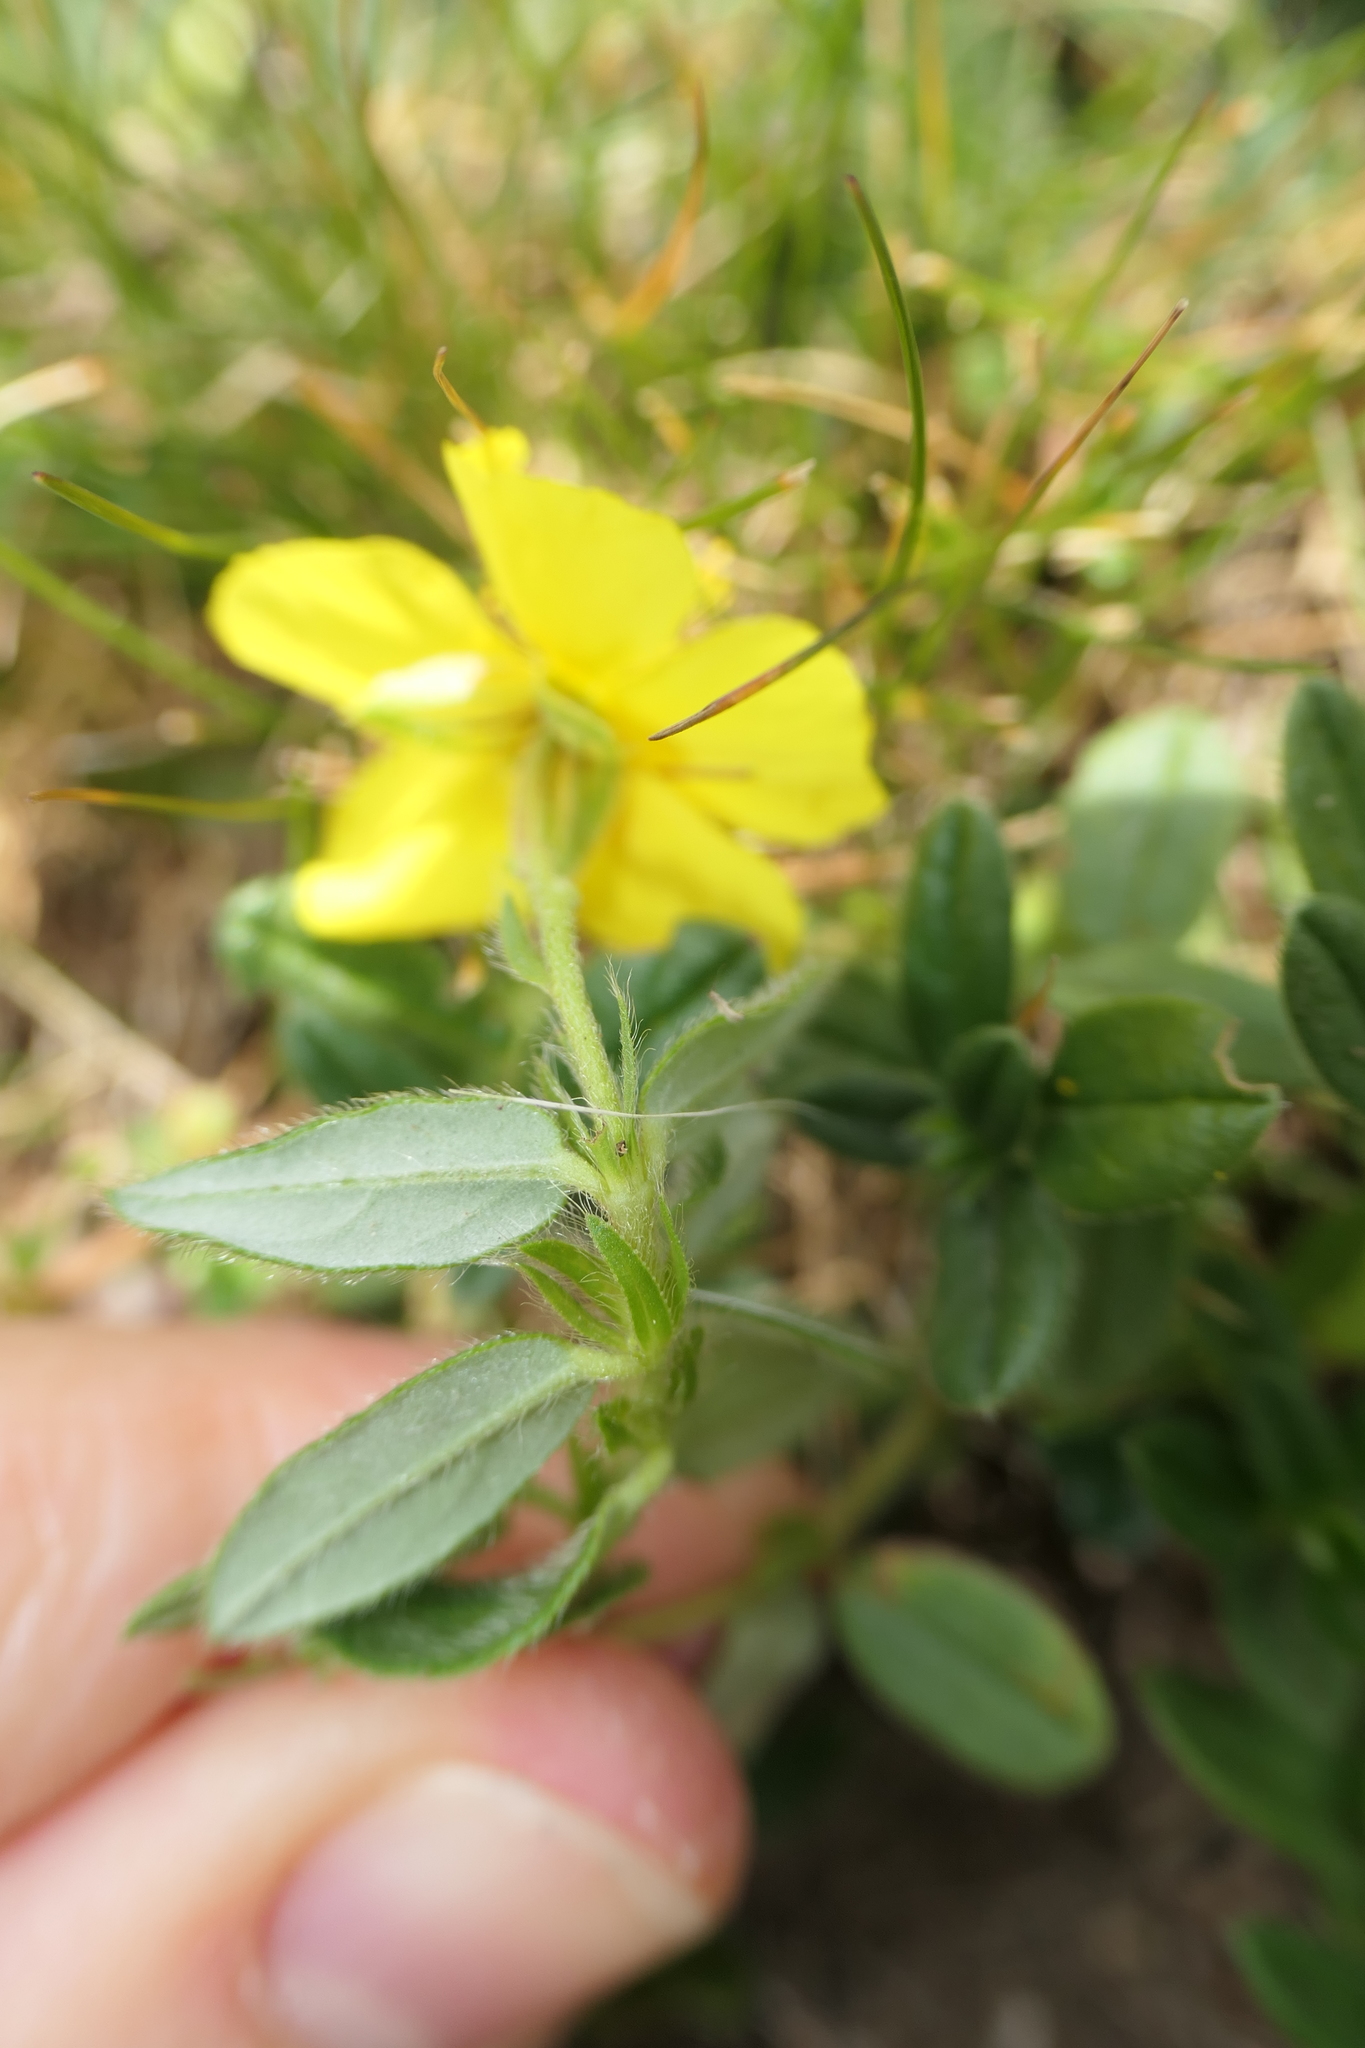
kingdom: Plantae
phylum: Tracheophyta
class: Magnoliopsida
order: Malvales
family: Cistaceae
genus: Helianthemum
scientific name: Helianthemum nummularium
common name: Common rock-rose
